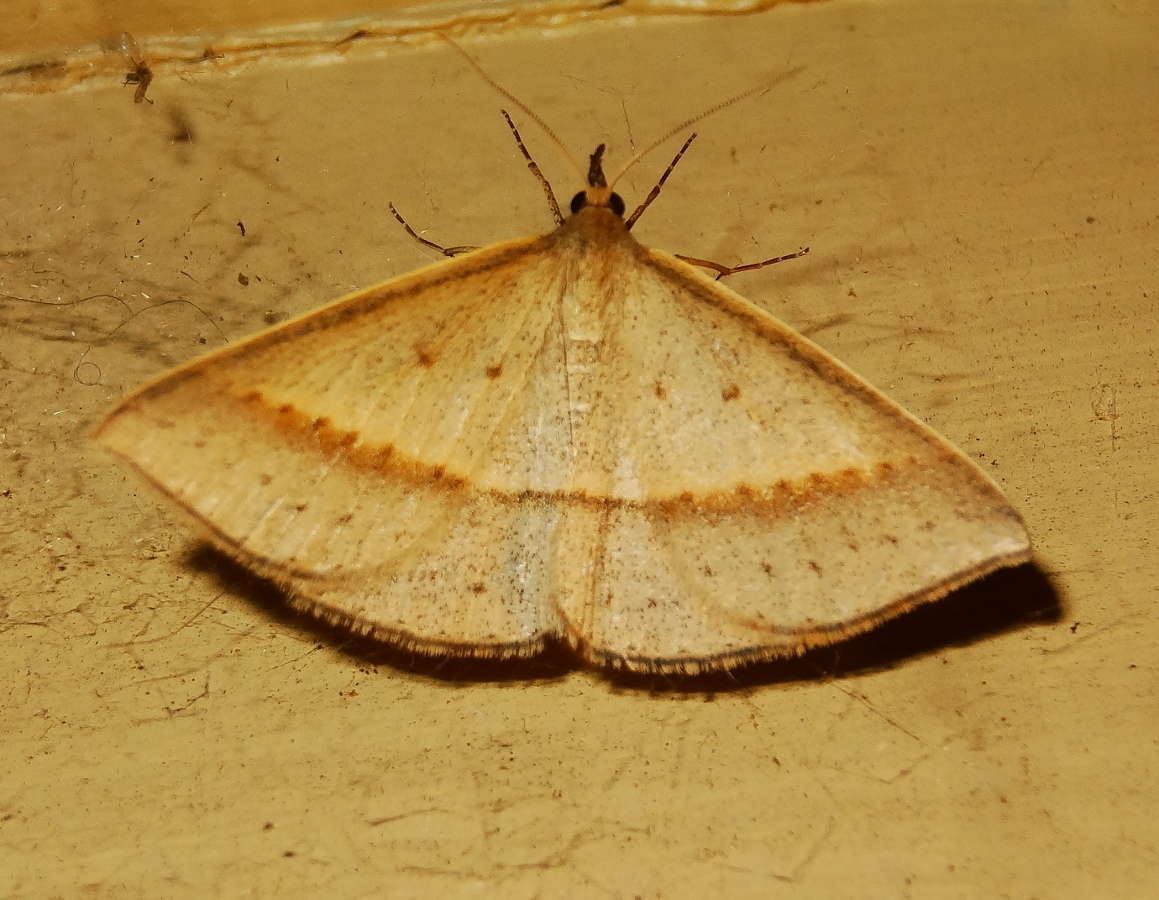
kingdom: Animalia
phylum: Arthropoda
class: Insecta
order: Lepidoptera
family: Geometridae
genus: Epidesmia
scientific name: Epidesmia tryxaria
